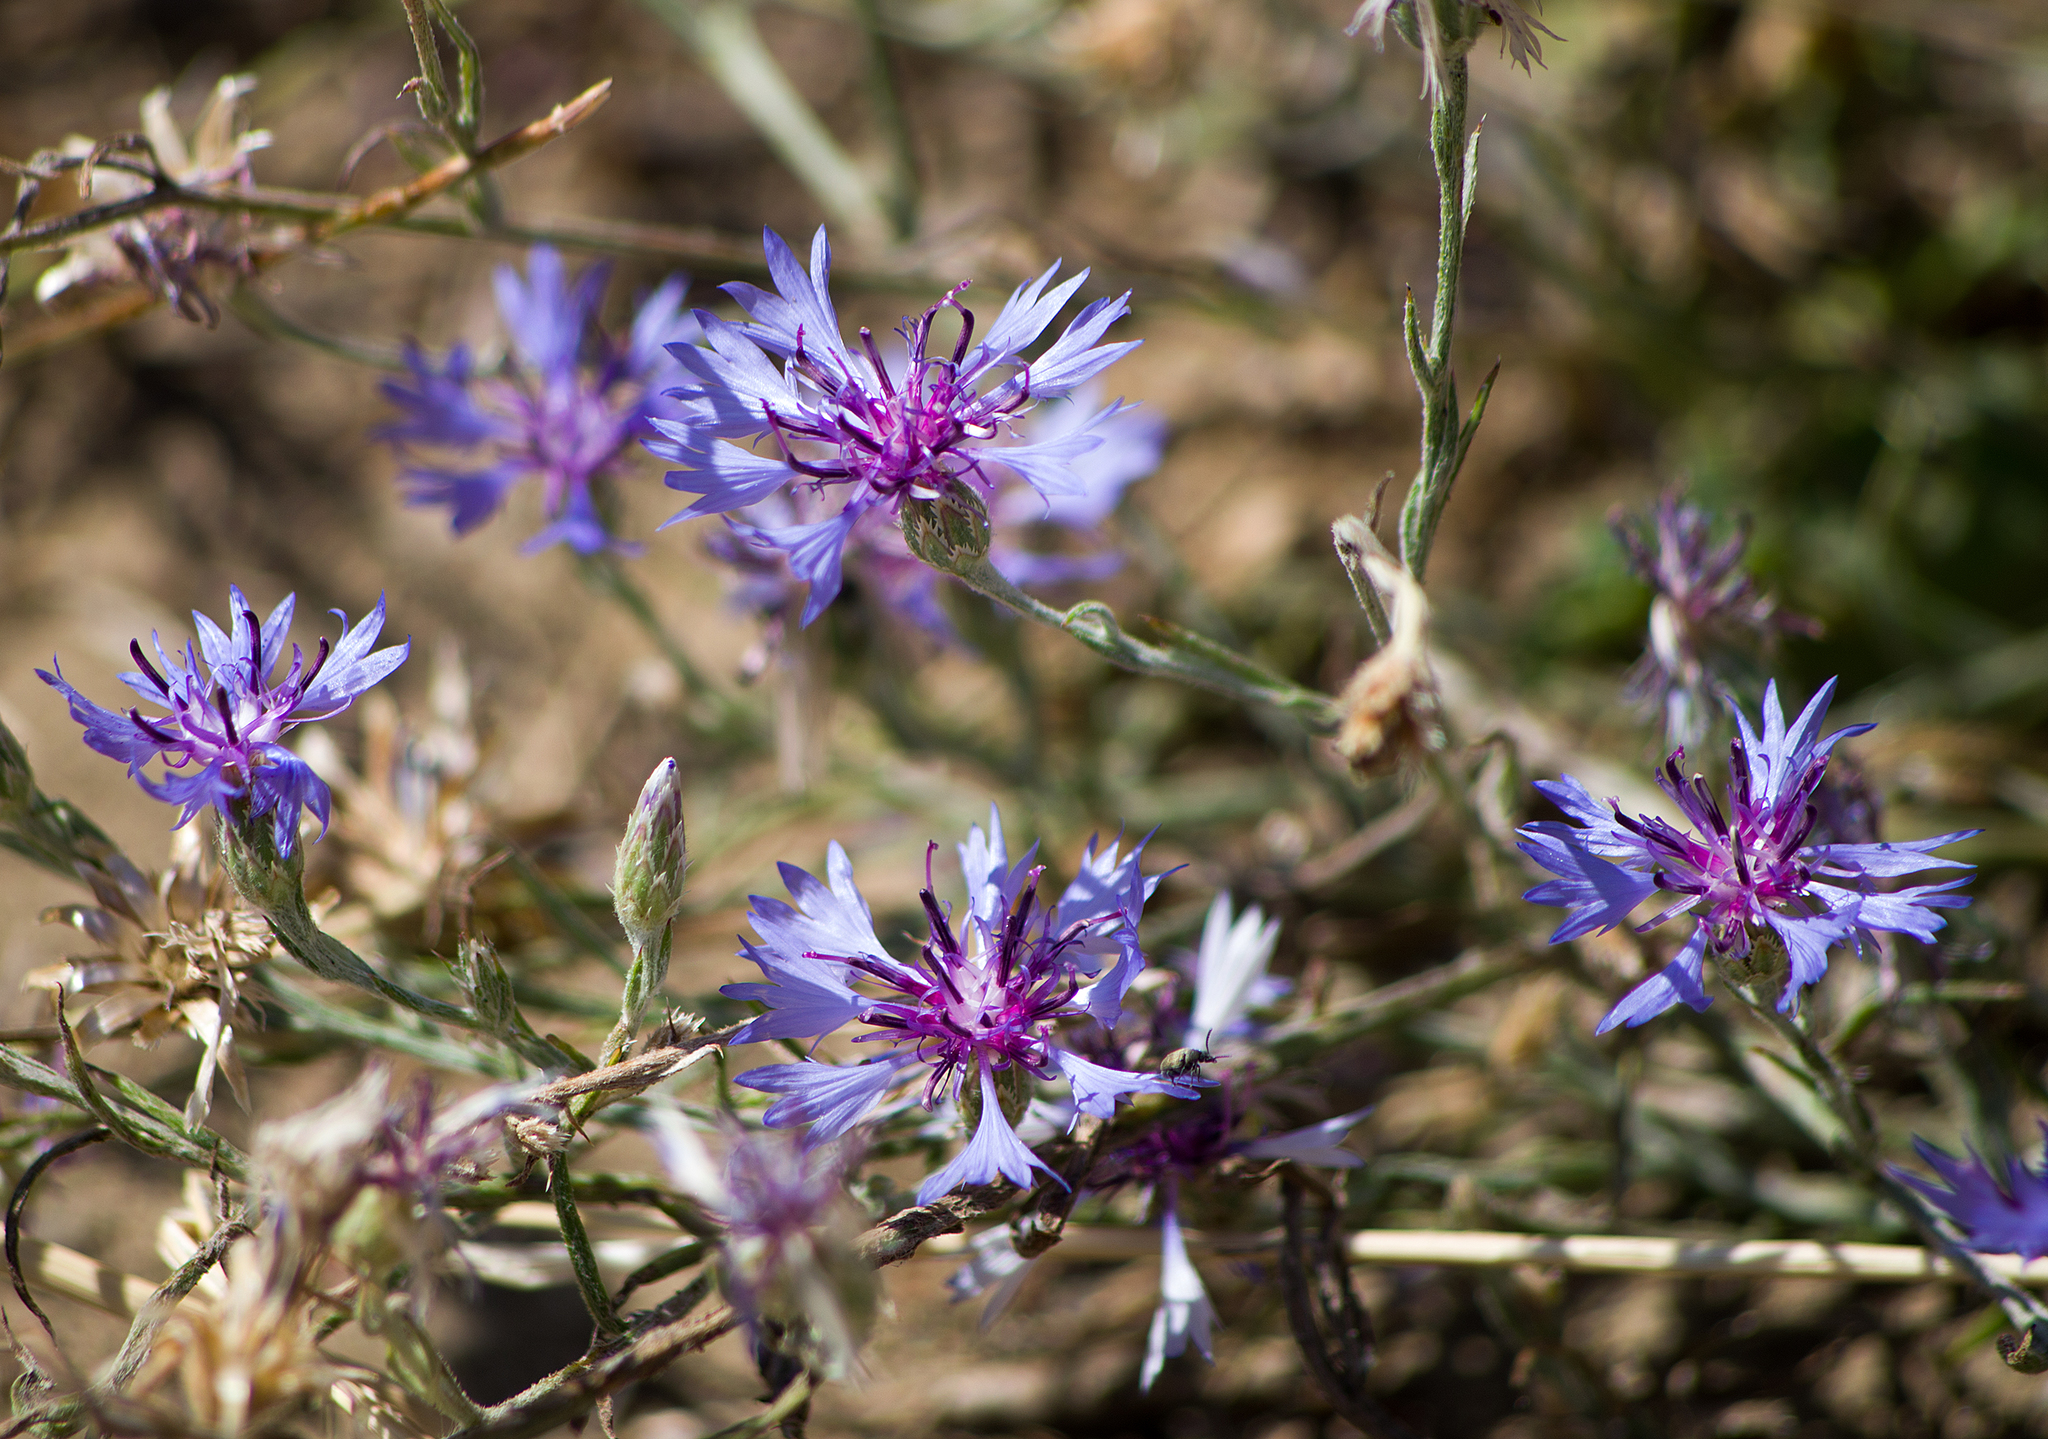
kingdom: Plantae
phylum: Tracheophyta
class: Magnoliopsida
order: Asterales
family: Asteraceae
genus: Centaurea
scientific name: Centaurea cyanus
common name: Cornflower
